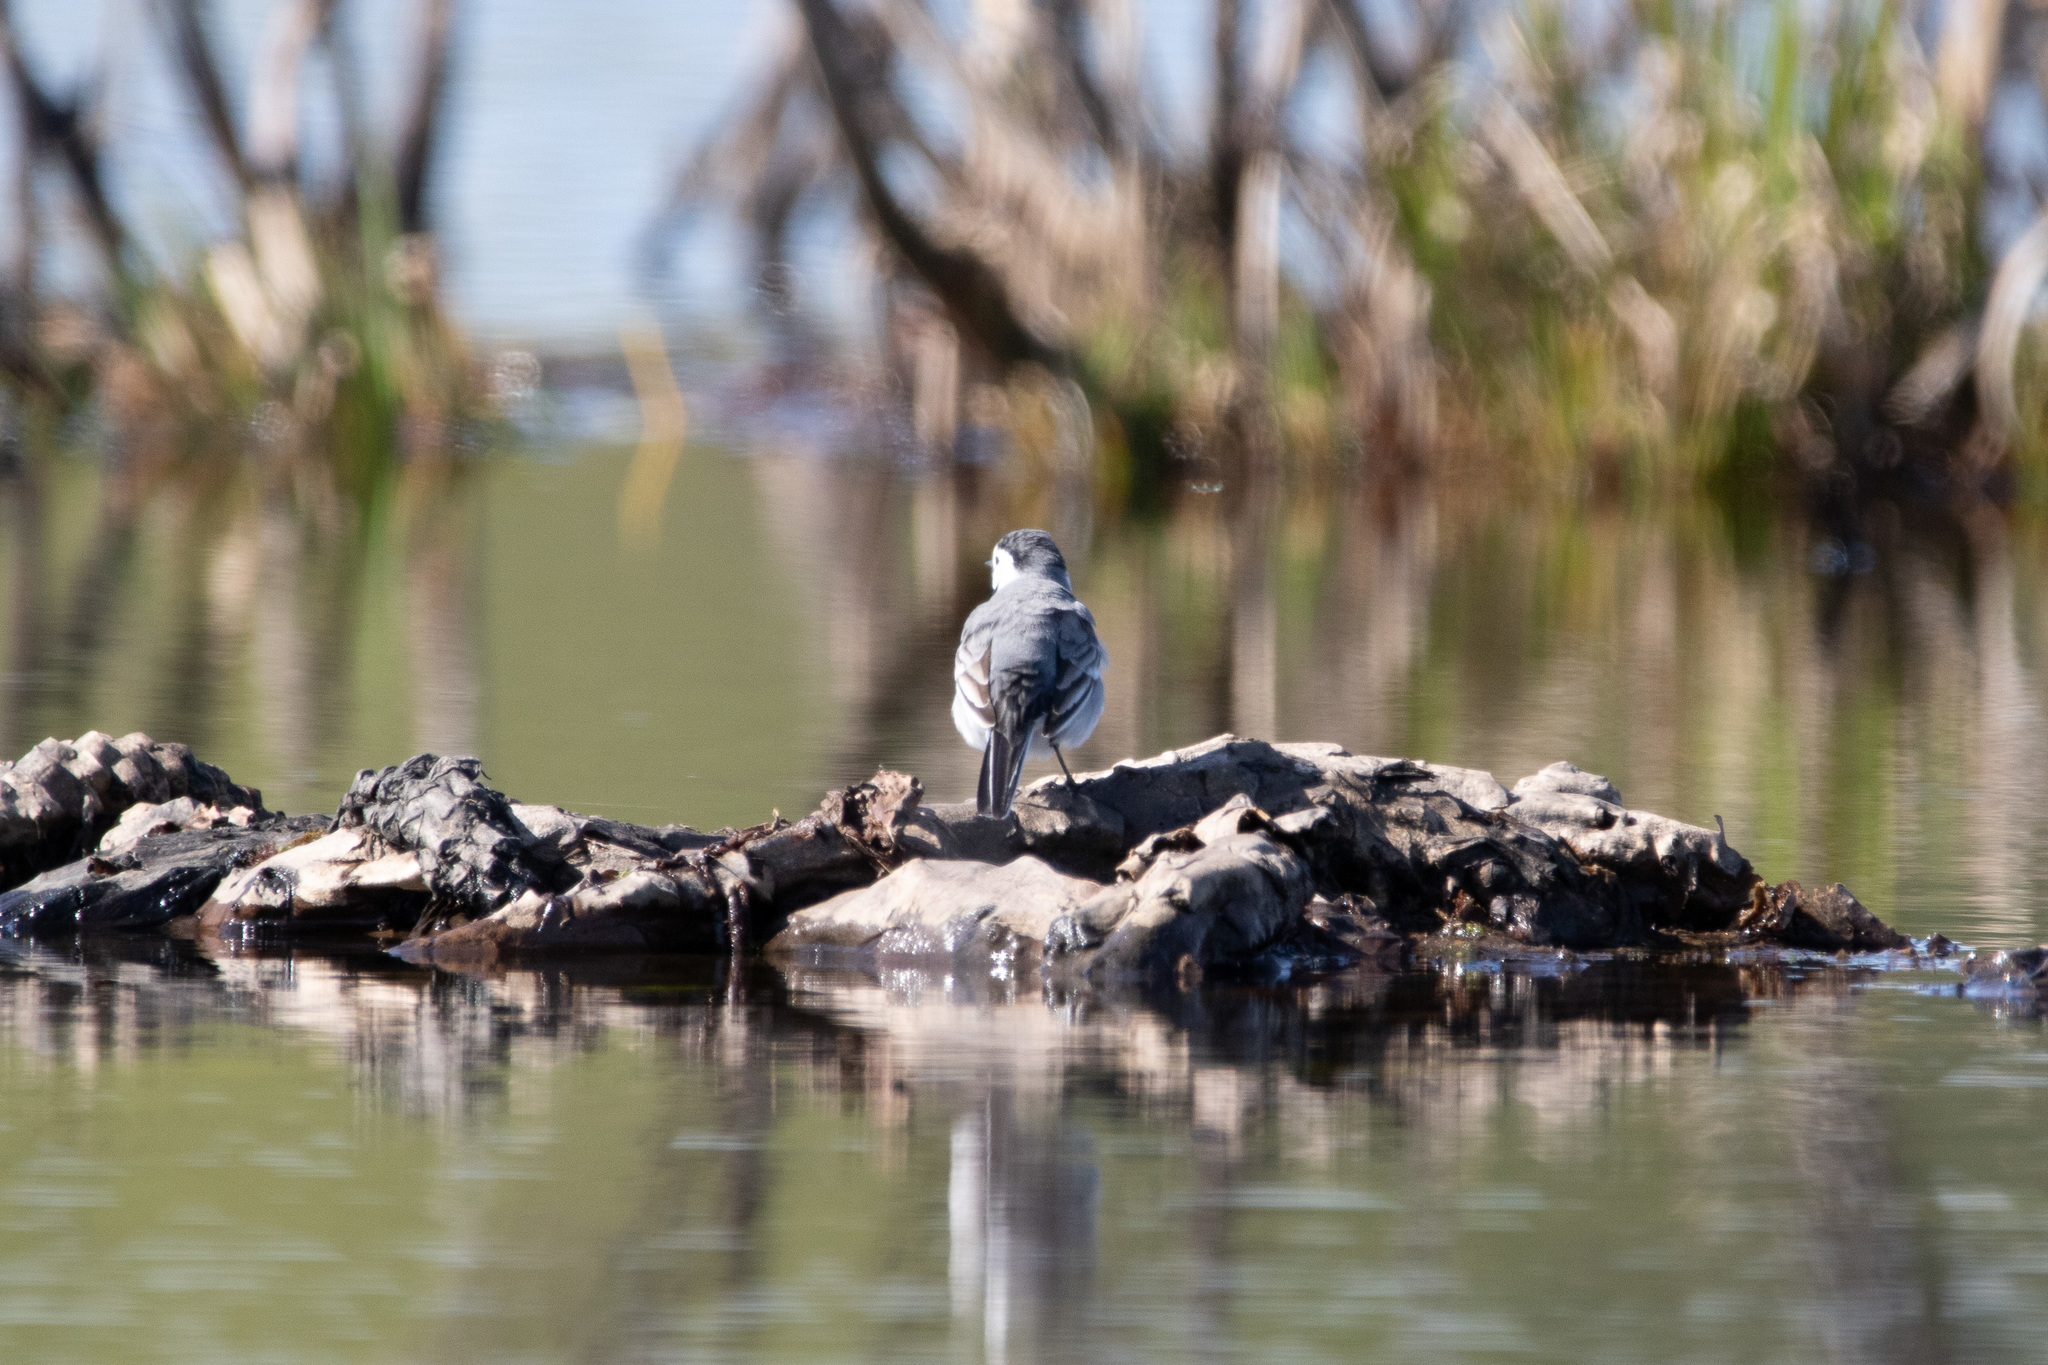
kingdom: Animalia
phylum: Chordata
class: Aves
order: Passeriformes
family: Motacillidae
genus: Motacilla
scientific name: Motacilla alba
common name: White wagtail
